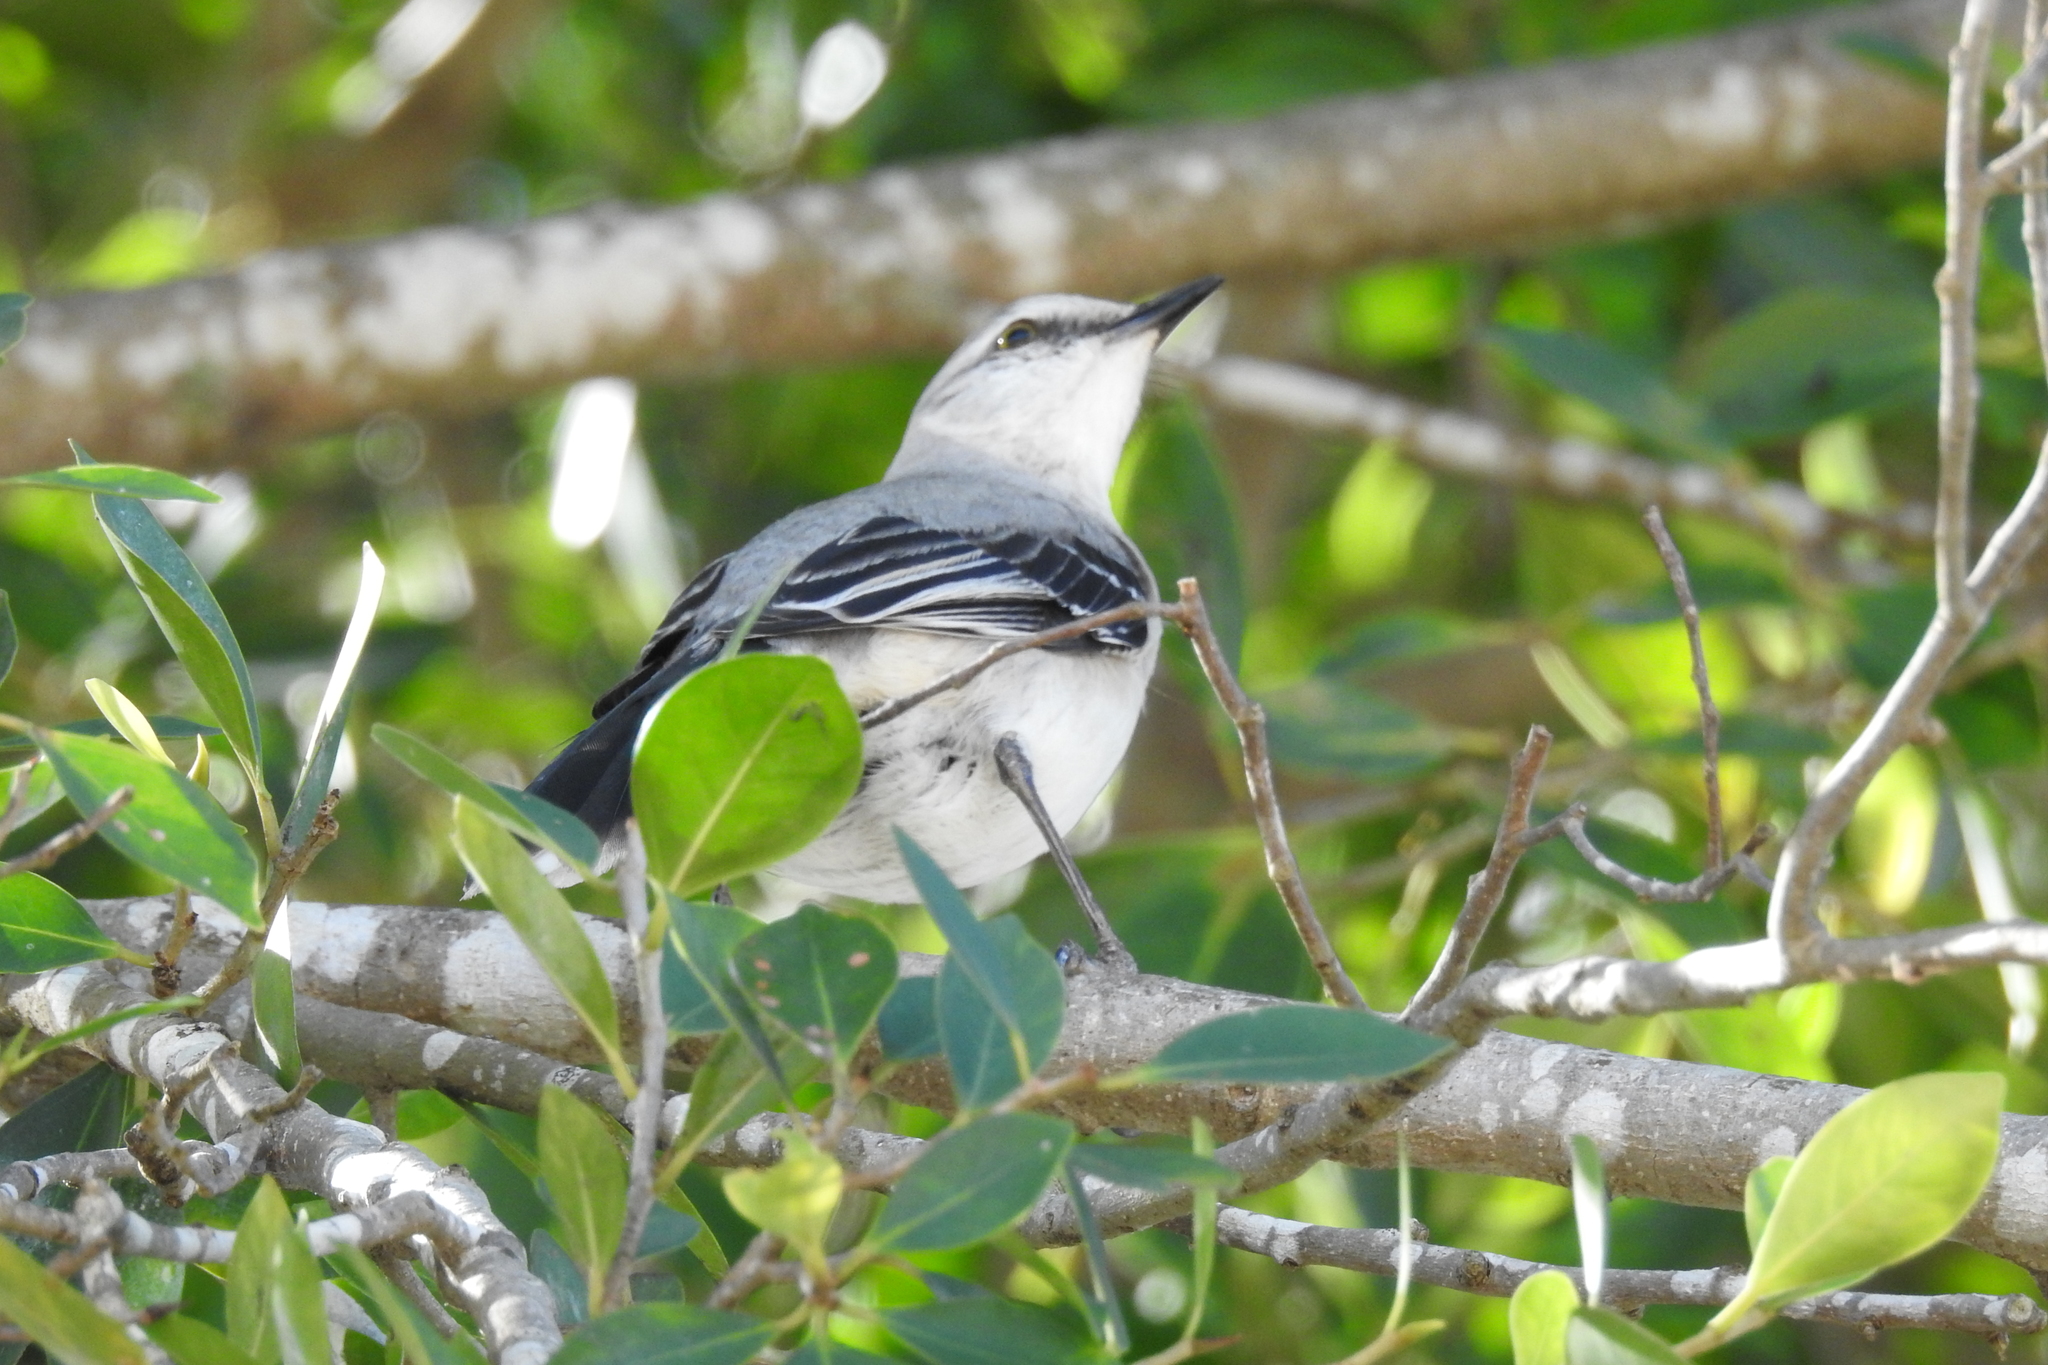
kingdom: Animalia
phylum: Chordata
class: Aves
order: Passeriformes
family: Mimidae
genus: Mimus
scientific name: Mimus gilvus
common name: Tropical mockingbird
